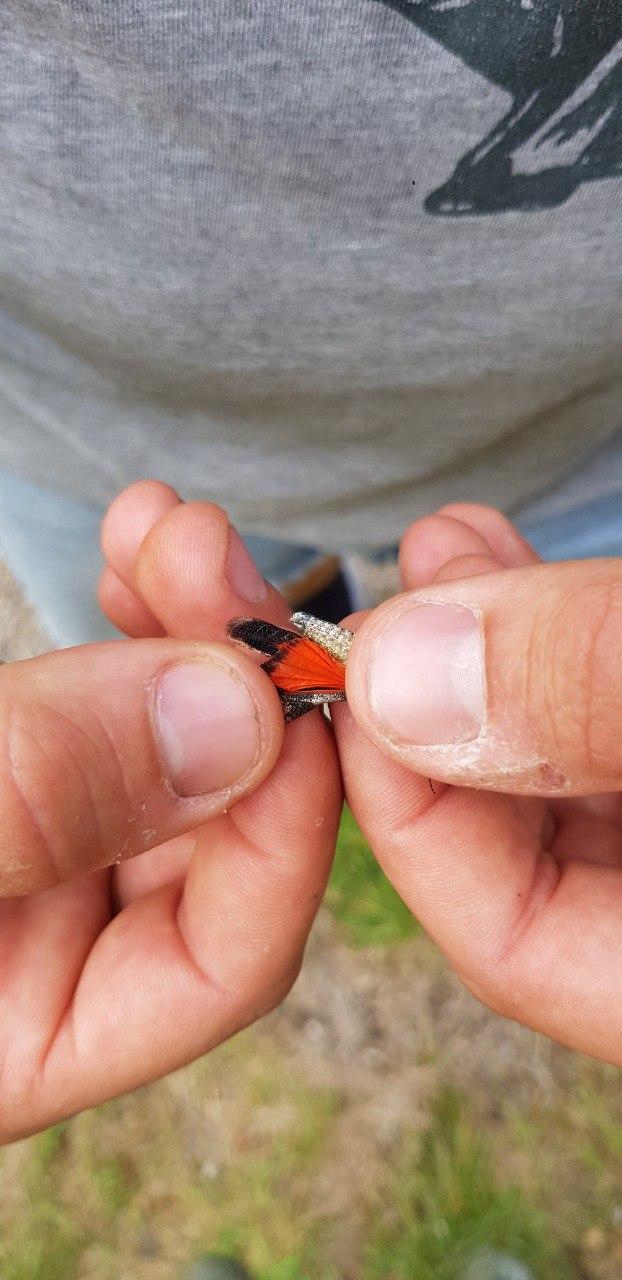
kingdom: Animalia
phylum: Arthropoda
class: Insecta
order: Orthoptera
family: Acrididae
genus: Oedipoda
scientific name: Oedipoda germanica
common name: Red band-winged grasshopper
